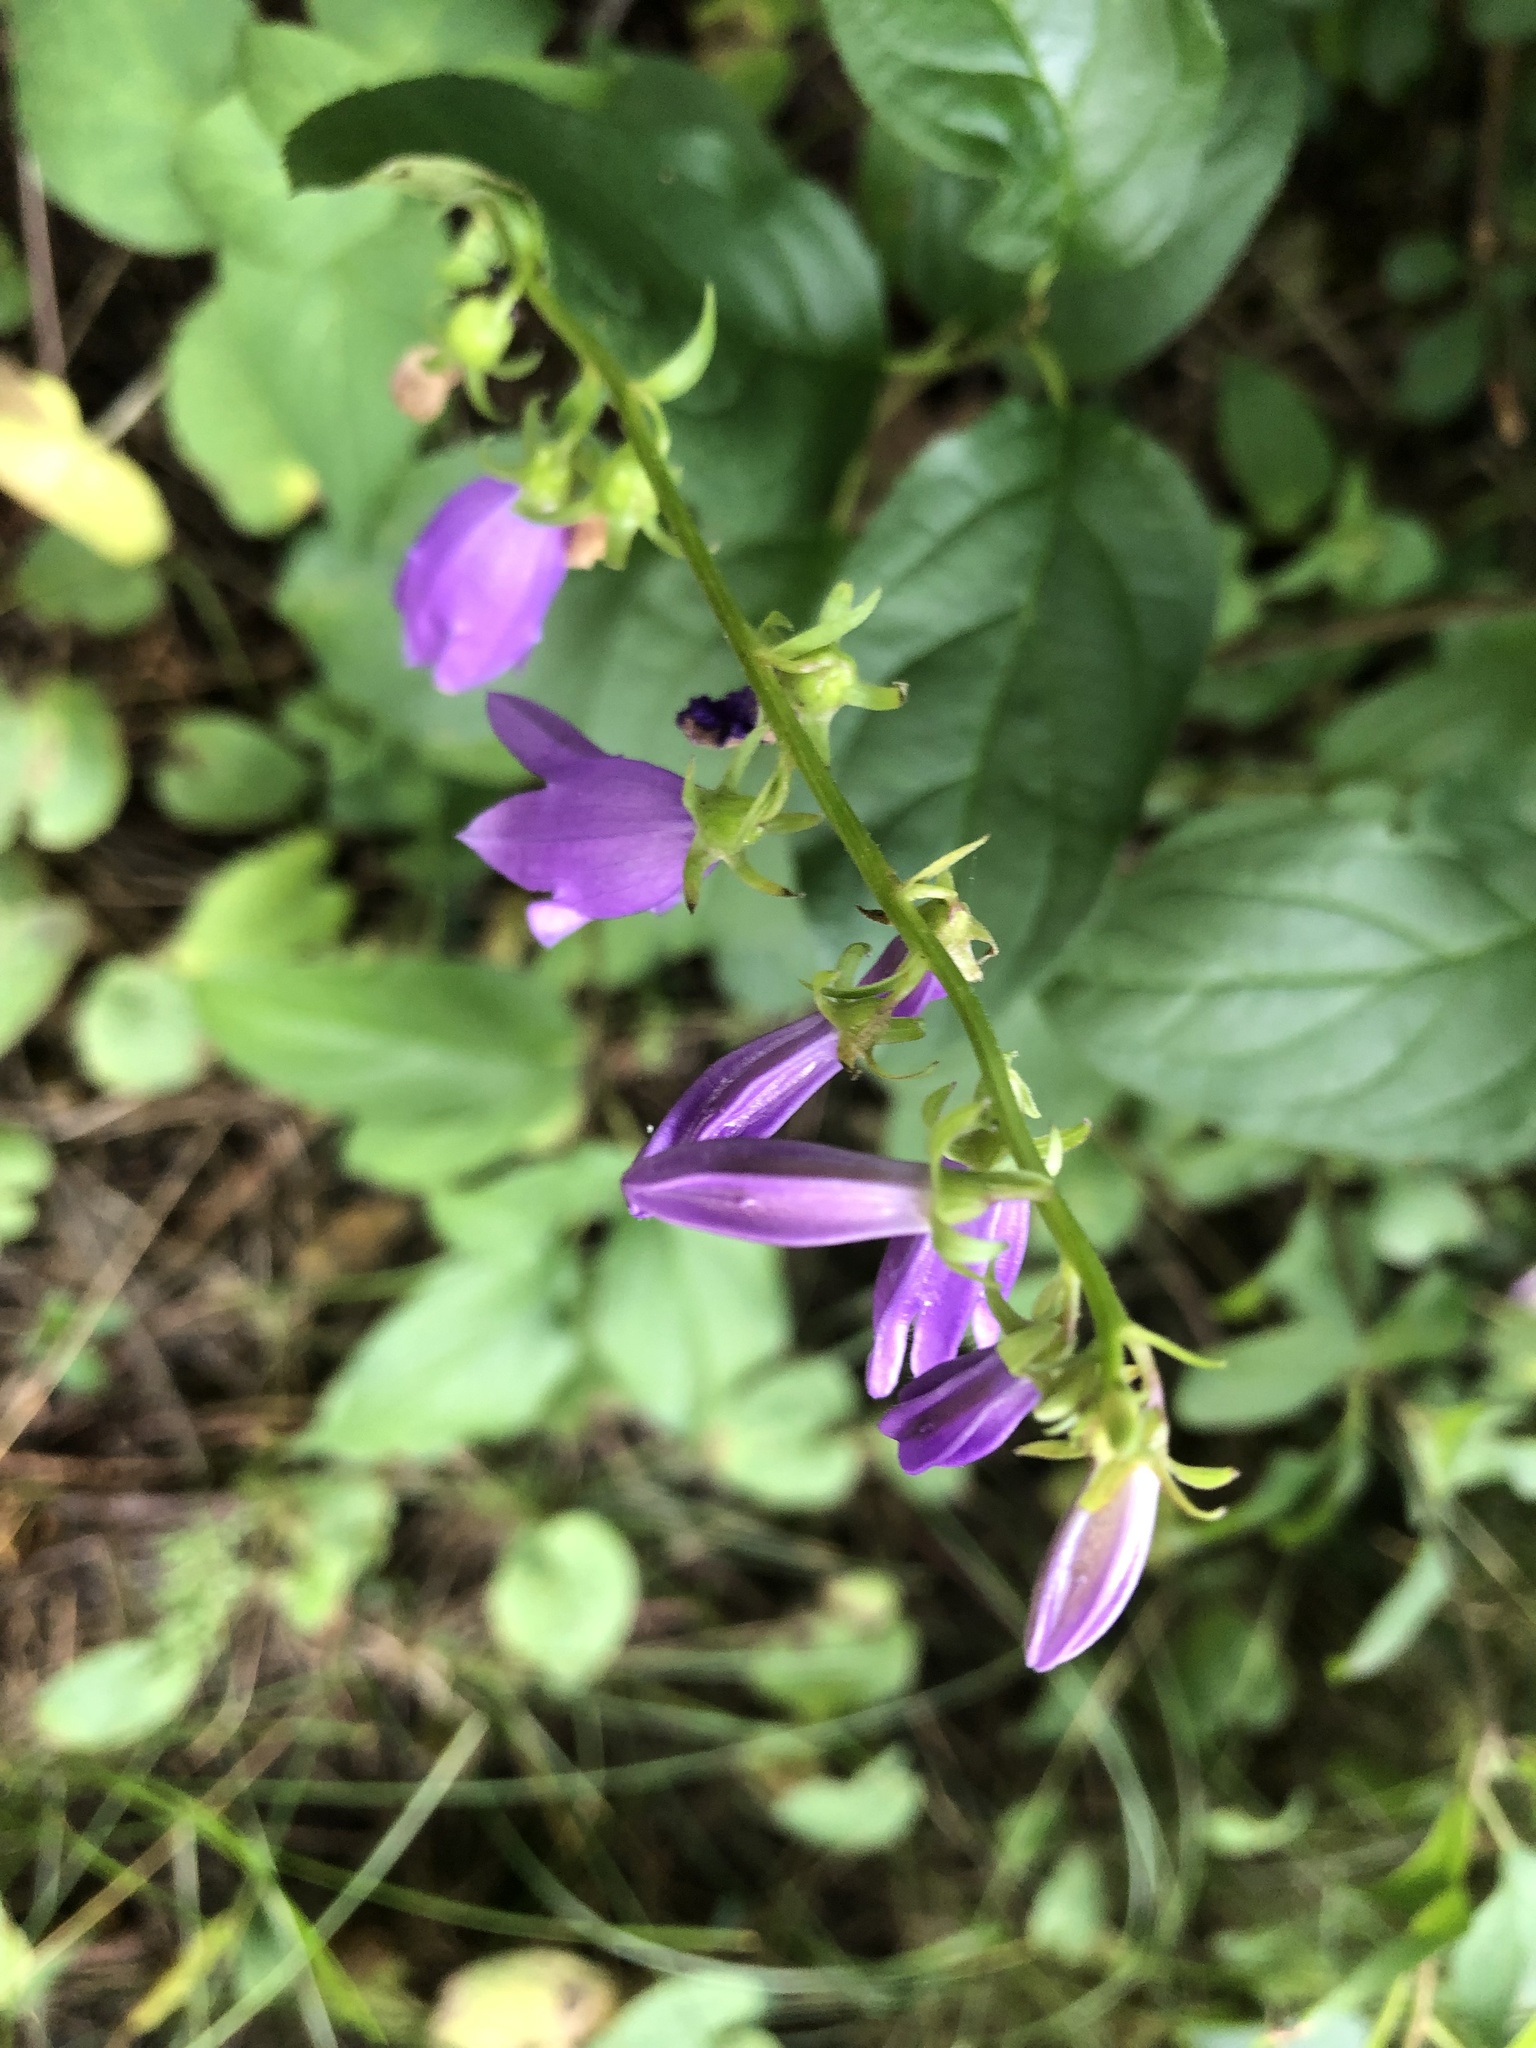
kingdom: Plantae
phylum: Tracheophyta
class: Magnoliopsida
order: Asterales
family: Campanulaceae
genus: Campanula
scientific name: Campanula rapunculoides
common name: Creeping bellflower
